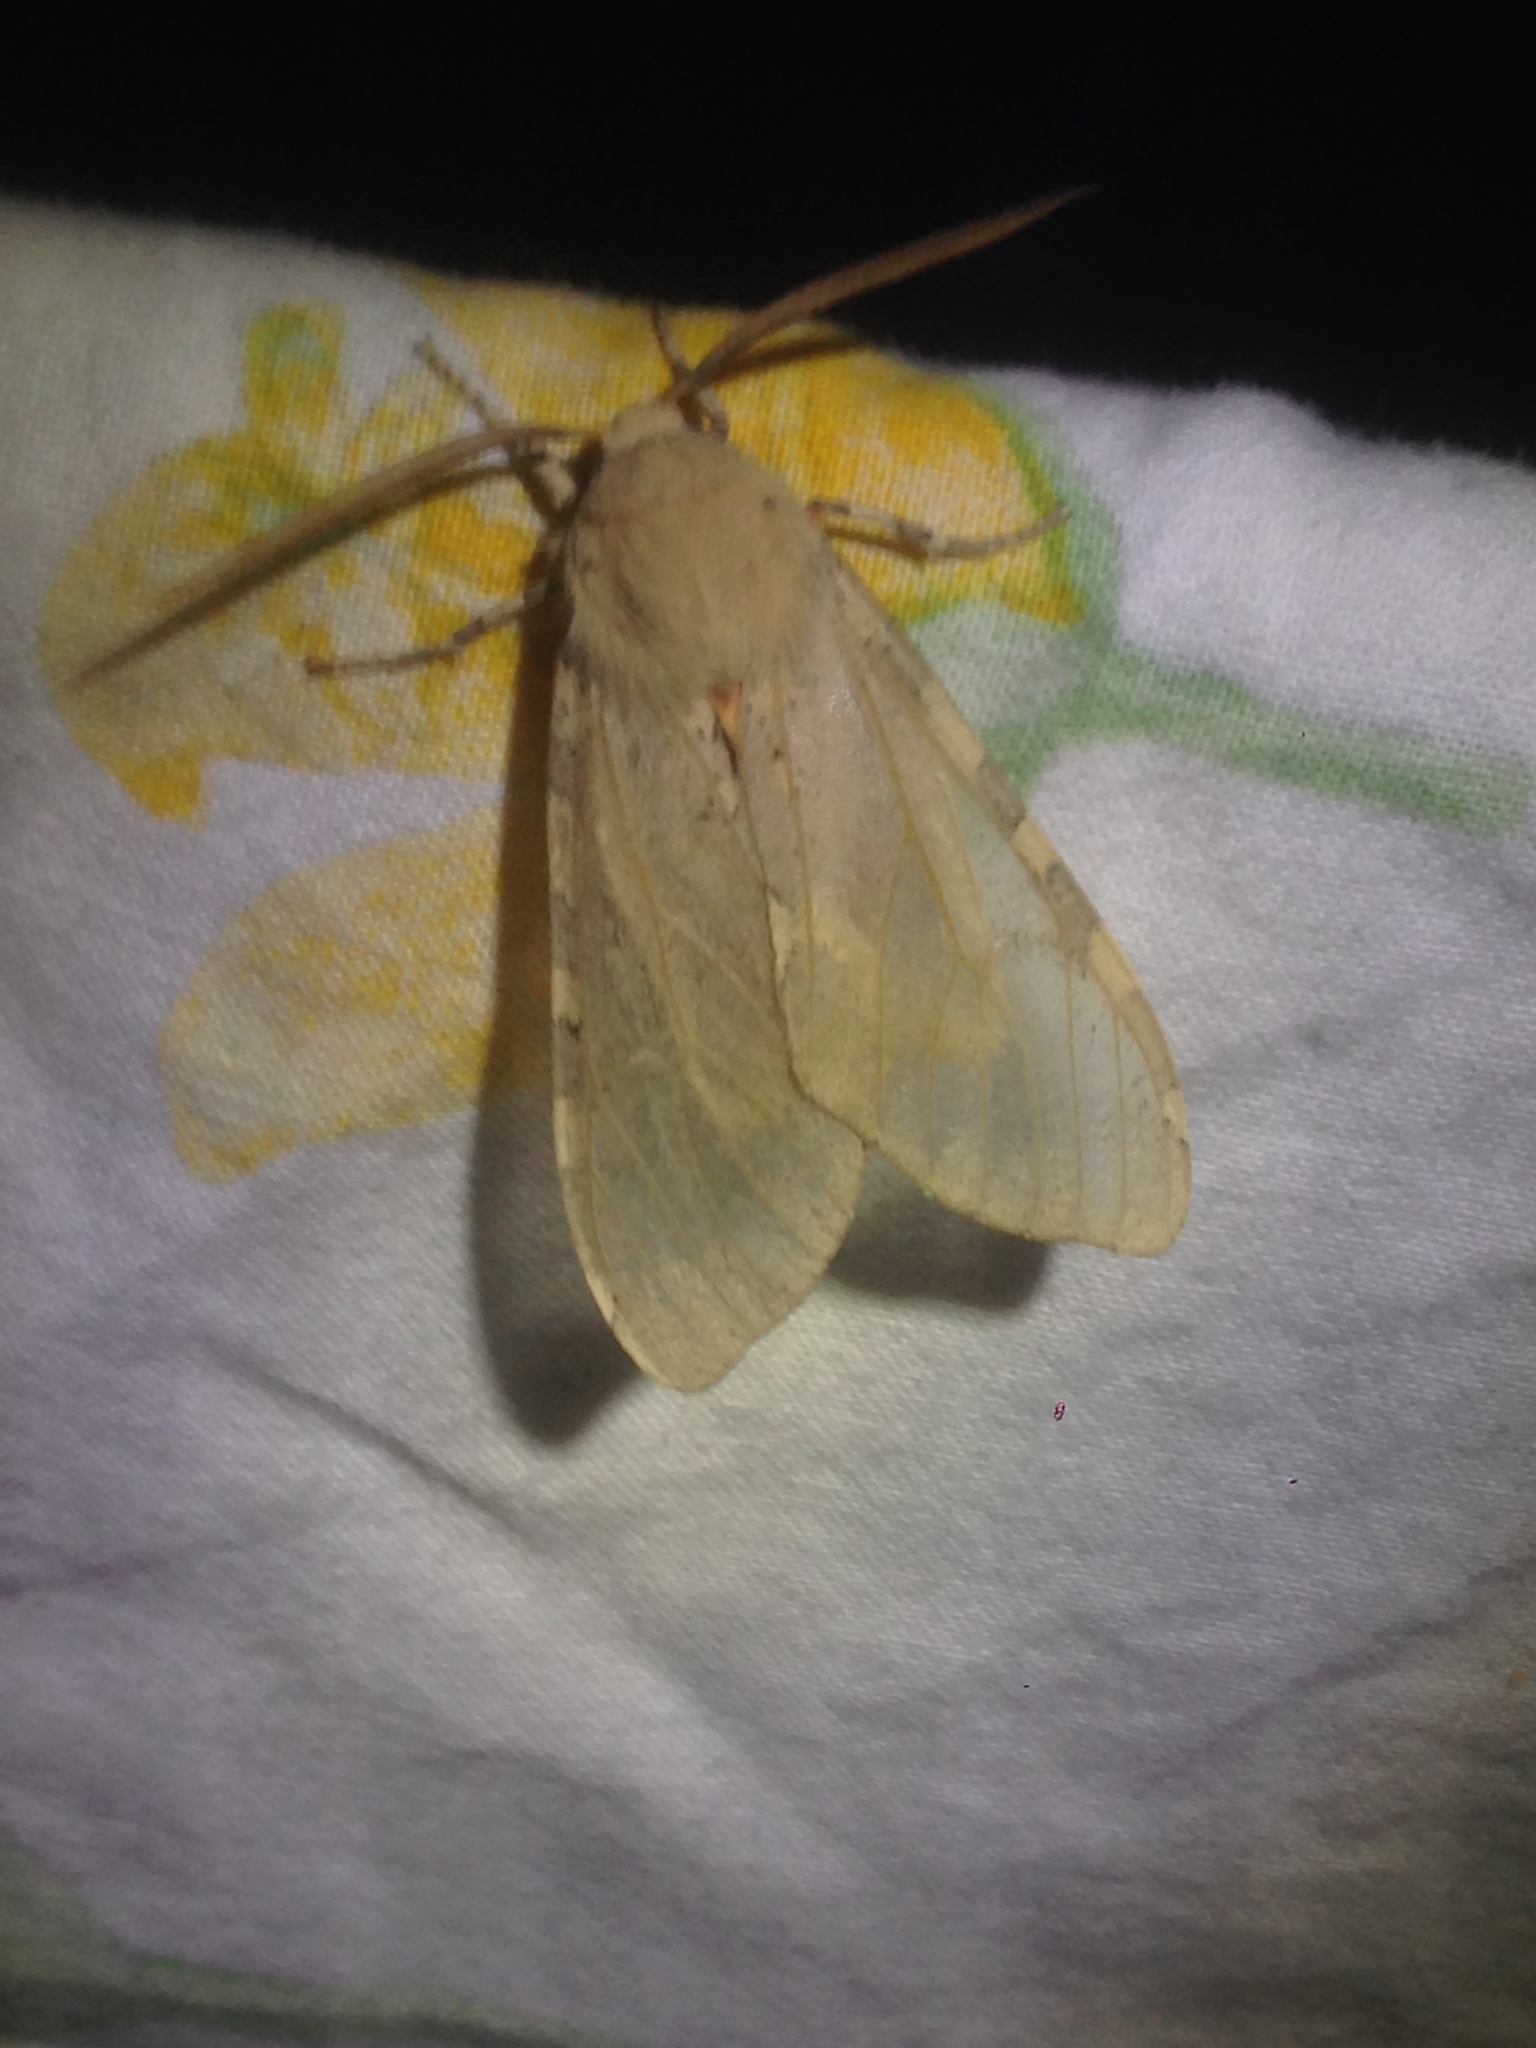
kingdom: Animalia
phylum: Arthropoda
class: Insecta
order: Lepidoptera
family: Erebidae
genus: Hemihyalea
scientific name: Hemihyalea edwardsii
